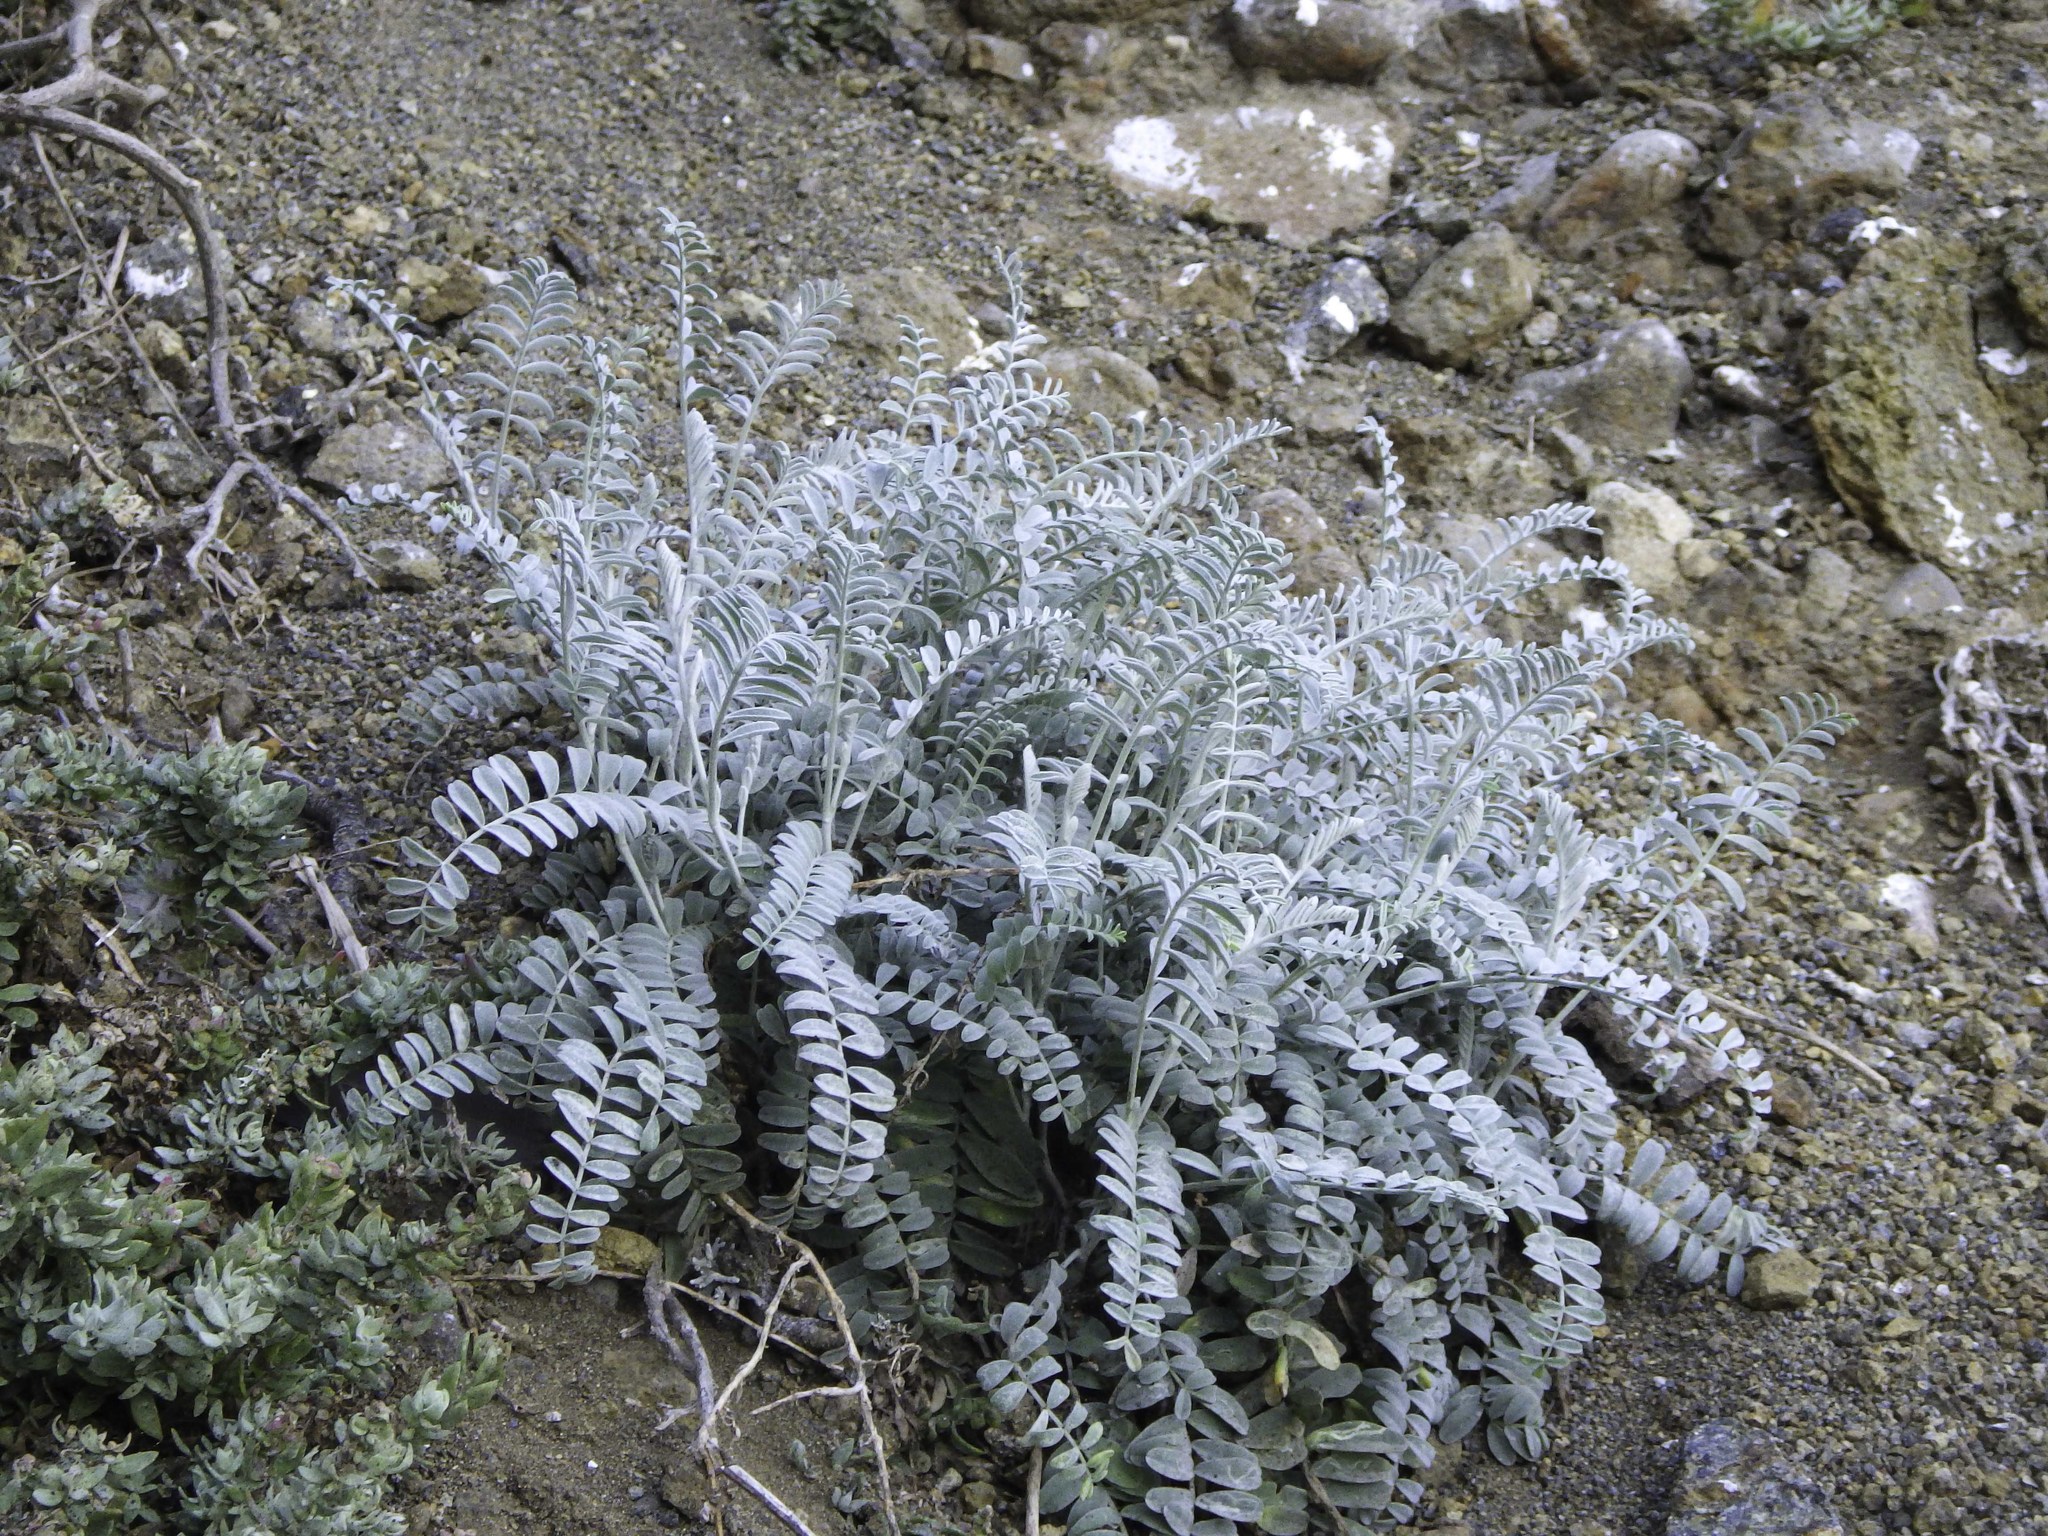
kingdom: Plantae
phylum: Tracheophyta
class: Magnoliopsida
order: Fabales
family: Fabaceae
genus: Astragalus
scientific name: Astragalus miguelensis
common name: San miguel milk-vetch
